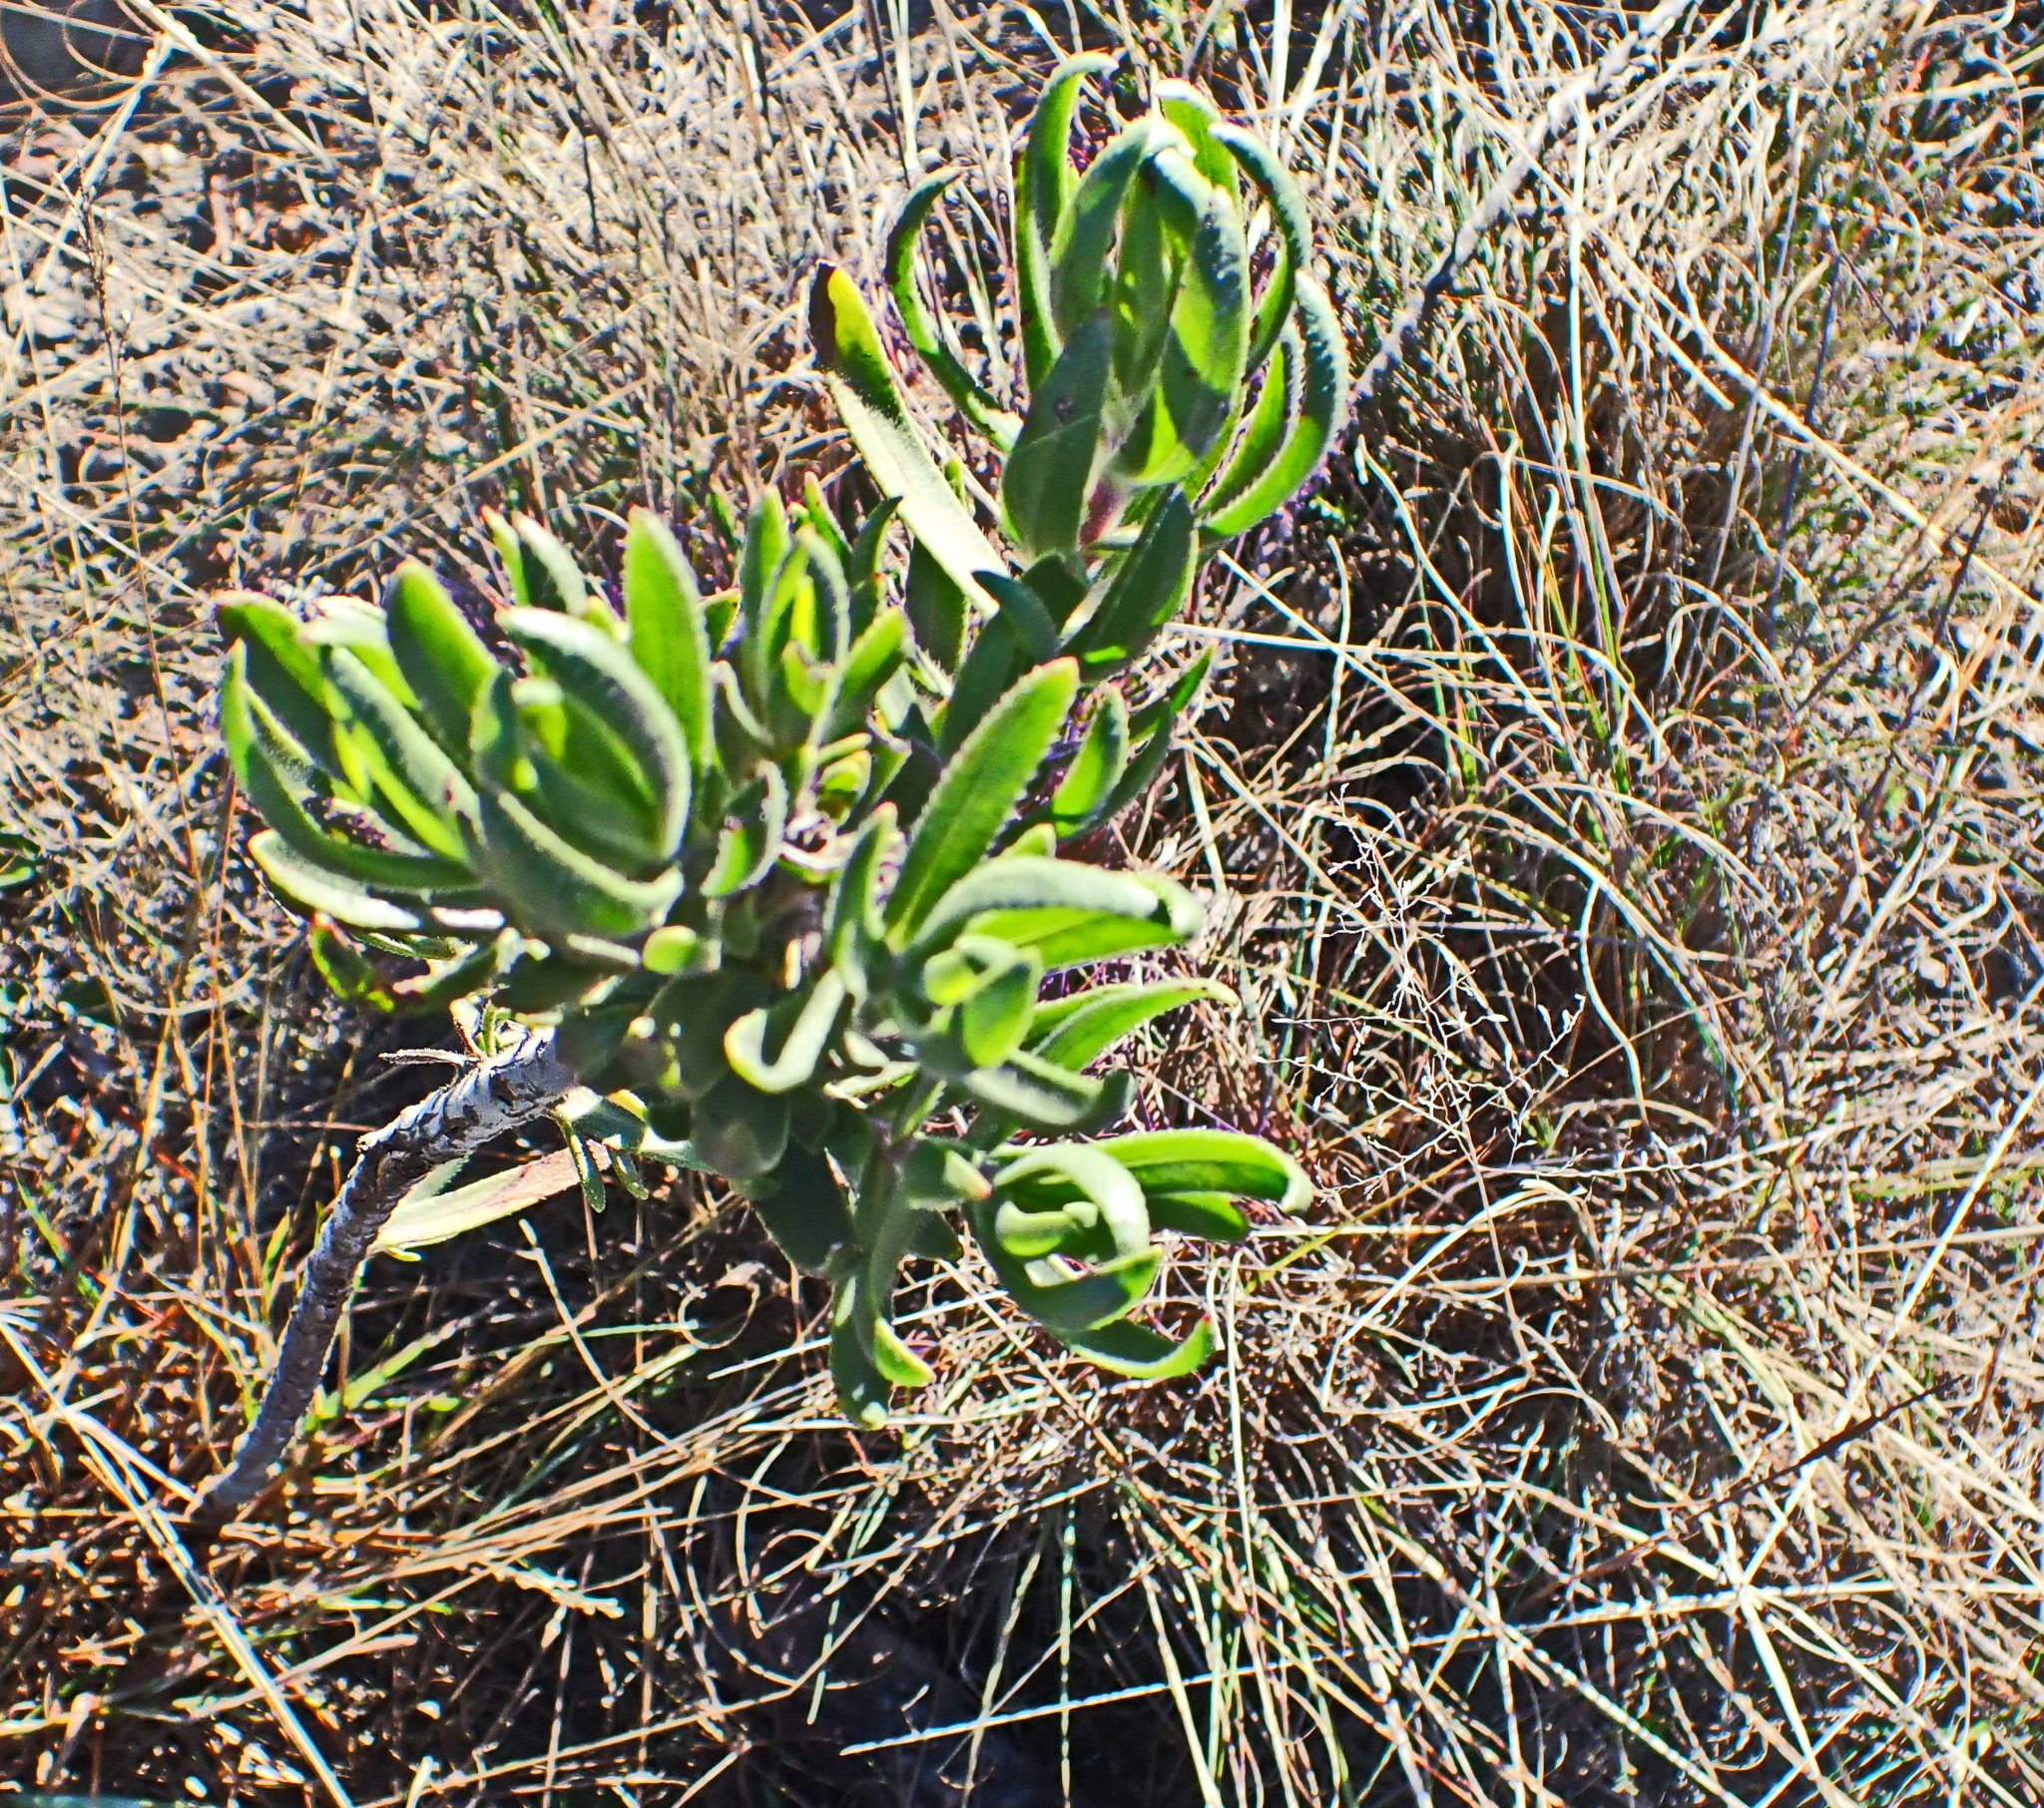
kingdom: Plantae
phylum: Tracheophyta
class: Magnoliopsida
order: Boraginales
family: Boraginaceae
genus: Lobostemon
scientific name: Lobostemon marlothii
